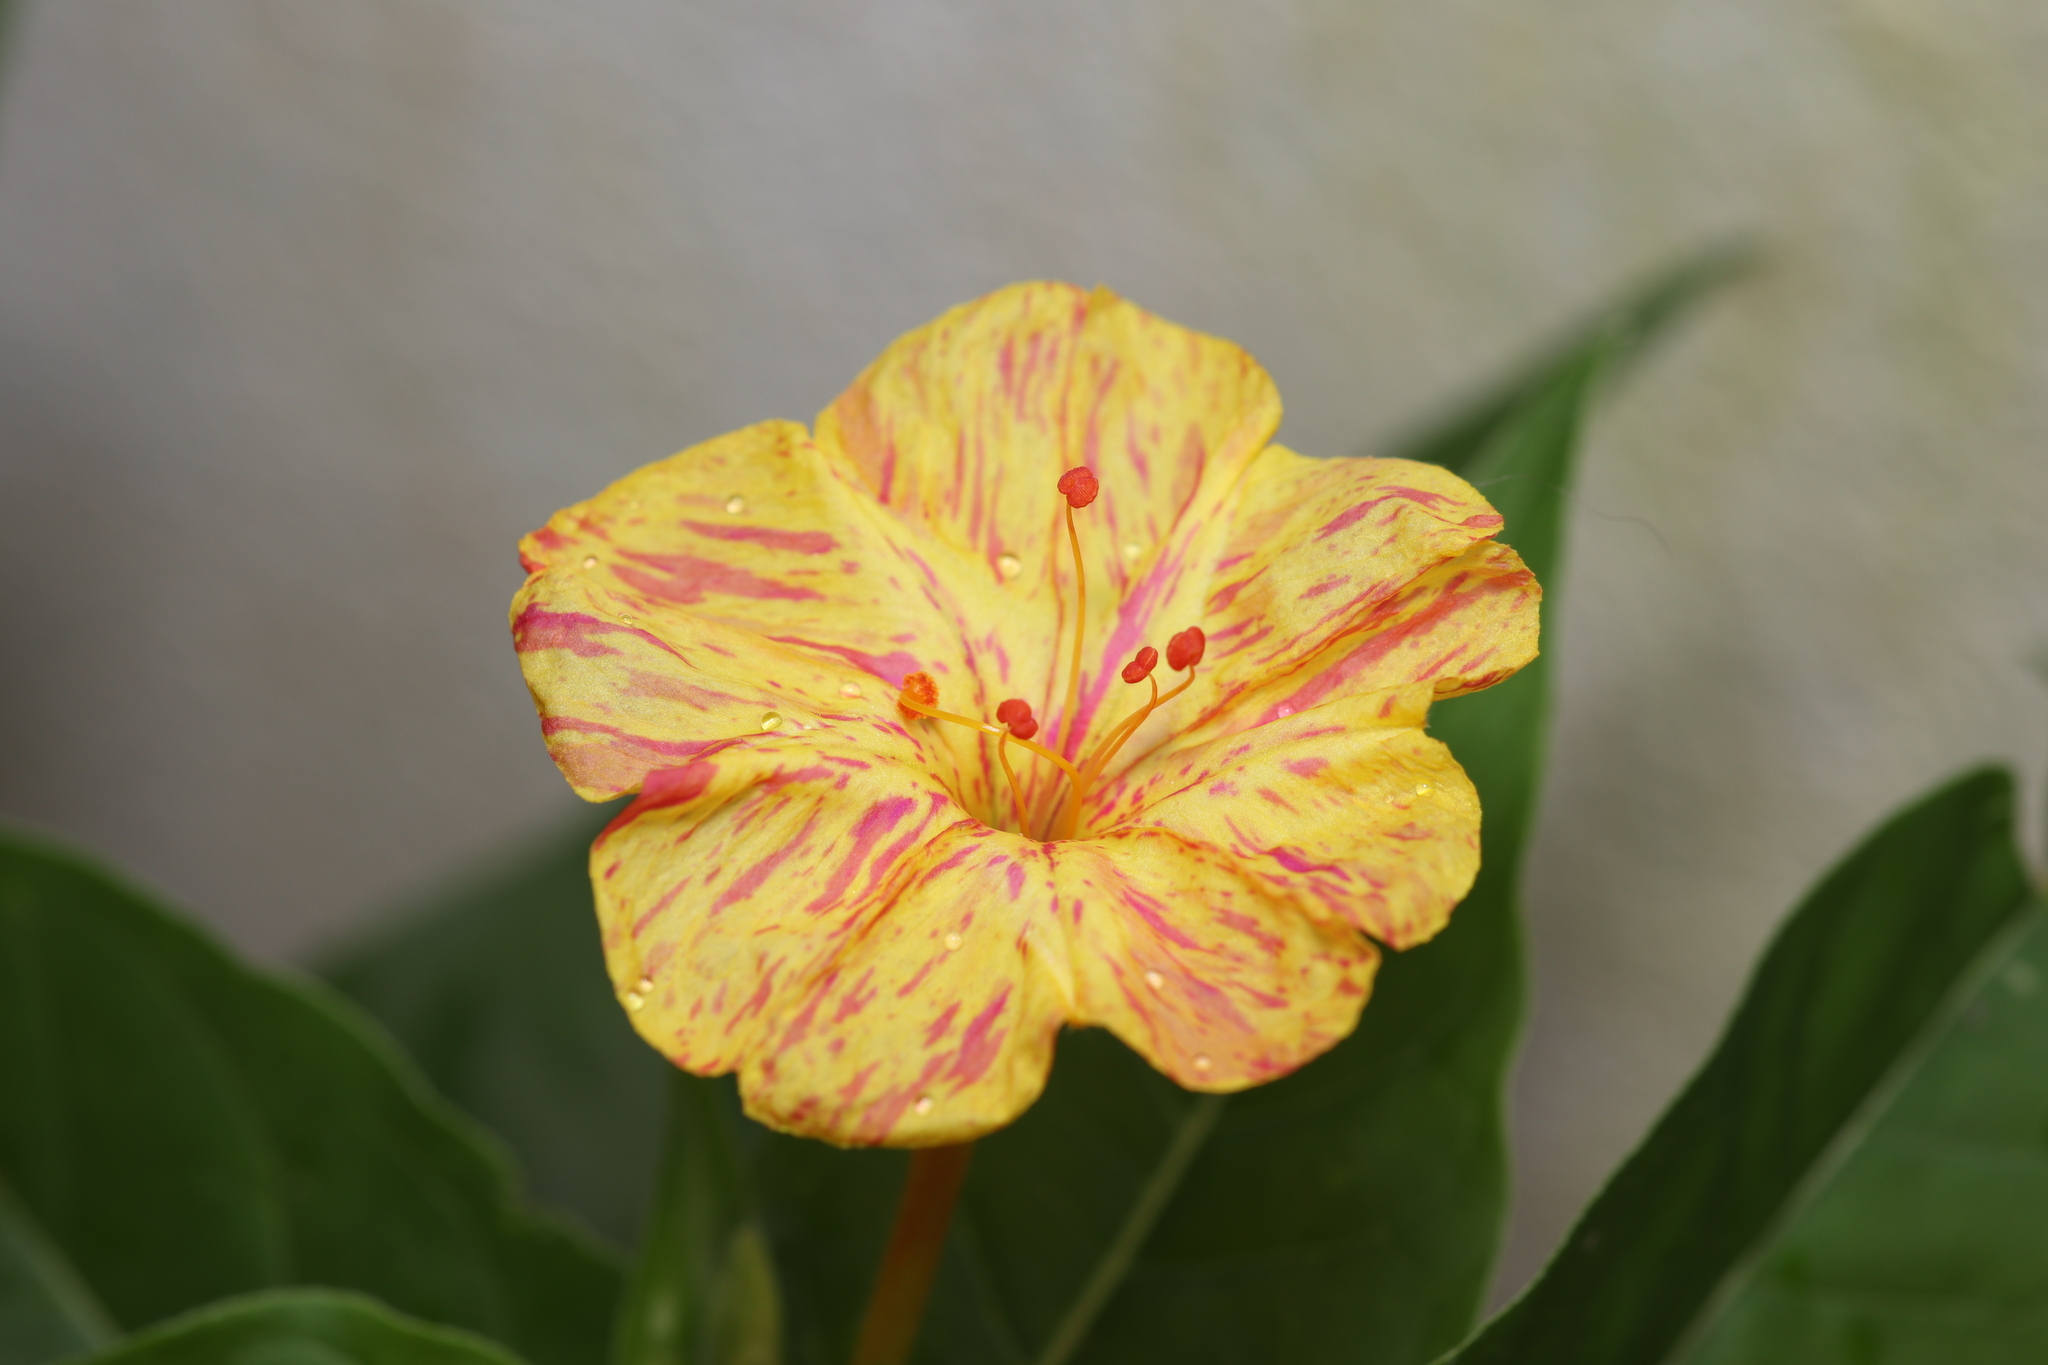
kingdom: Plantae
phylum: Tracheophyta
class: Magnoliopsida
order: Caryophyllales
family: Nyctaginaceae
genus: Mirabilis
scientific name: Mirabilis jalapa
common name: Marvel-of-peru
